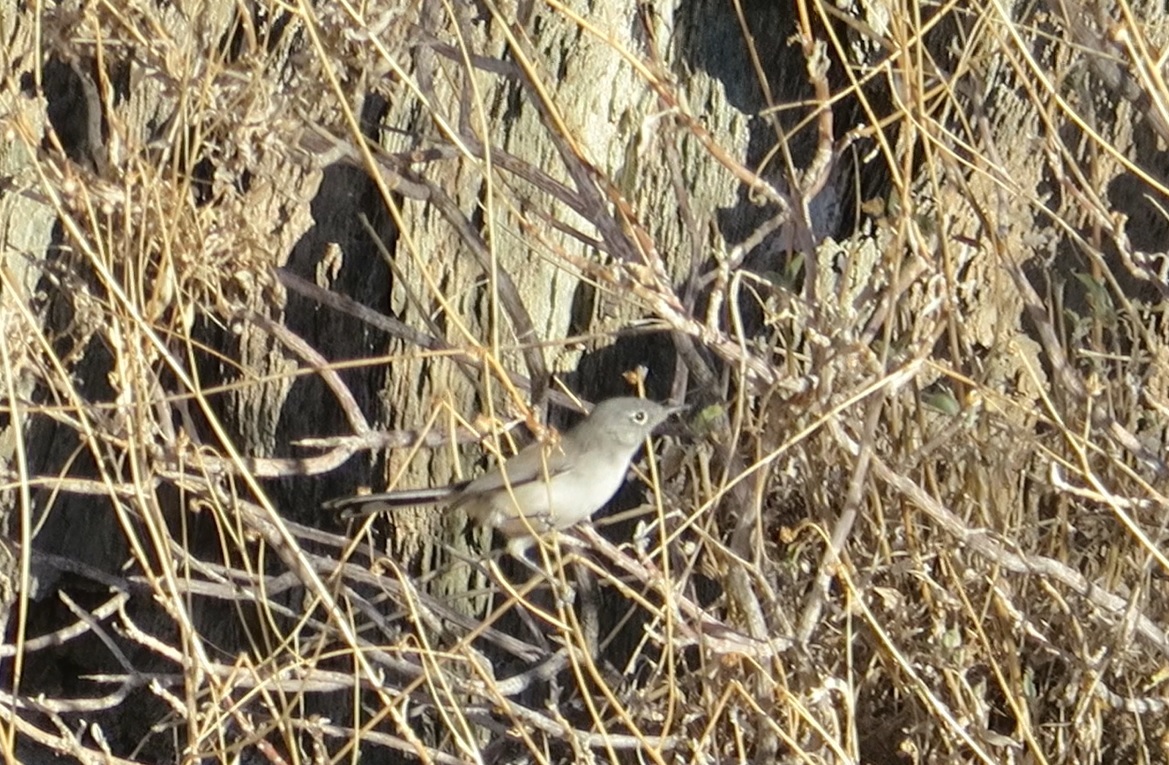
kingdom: Animalia
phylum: Chordata
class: Aves
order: Passeriformes
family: Polioptilidae
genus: Polioptila
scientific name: Polioptila melanura
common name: Black-tailed gnatcatcher
